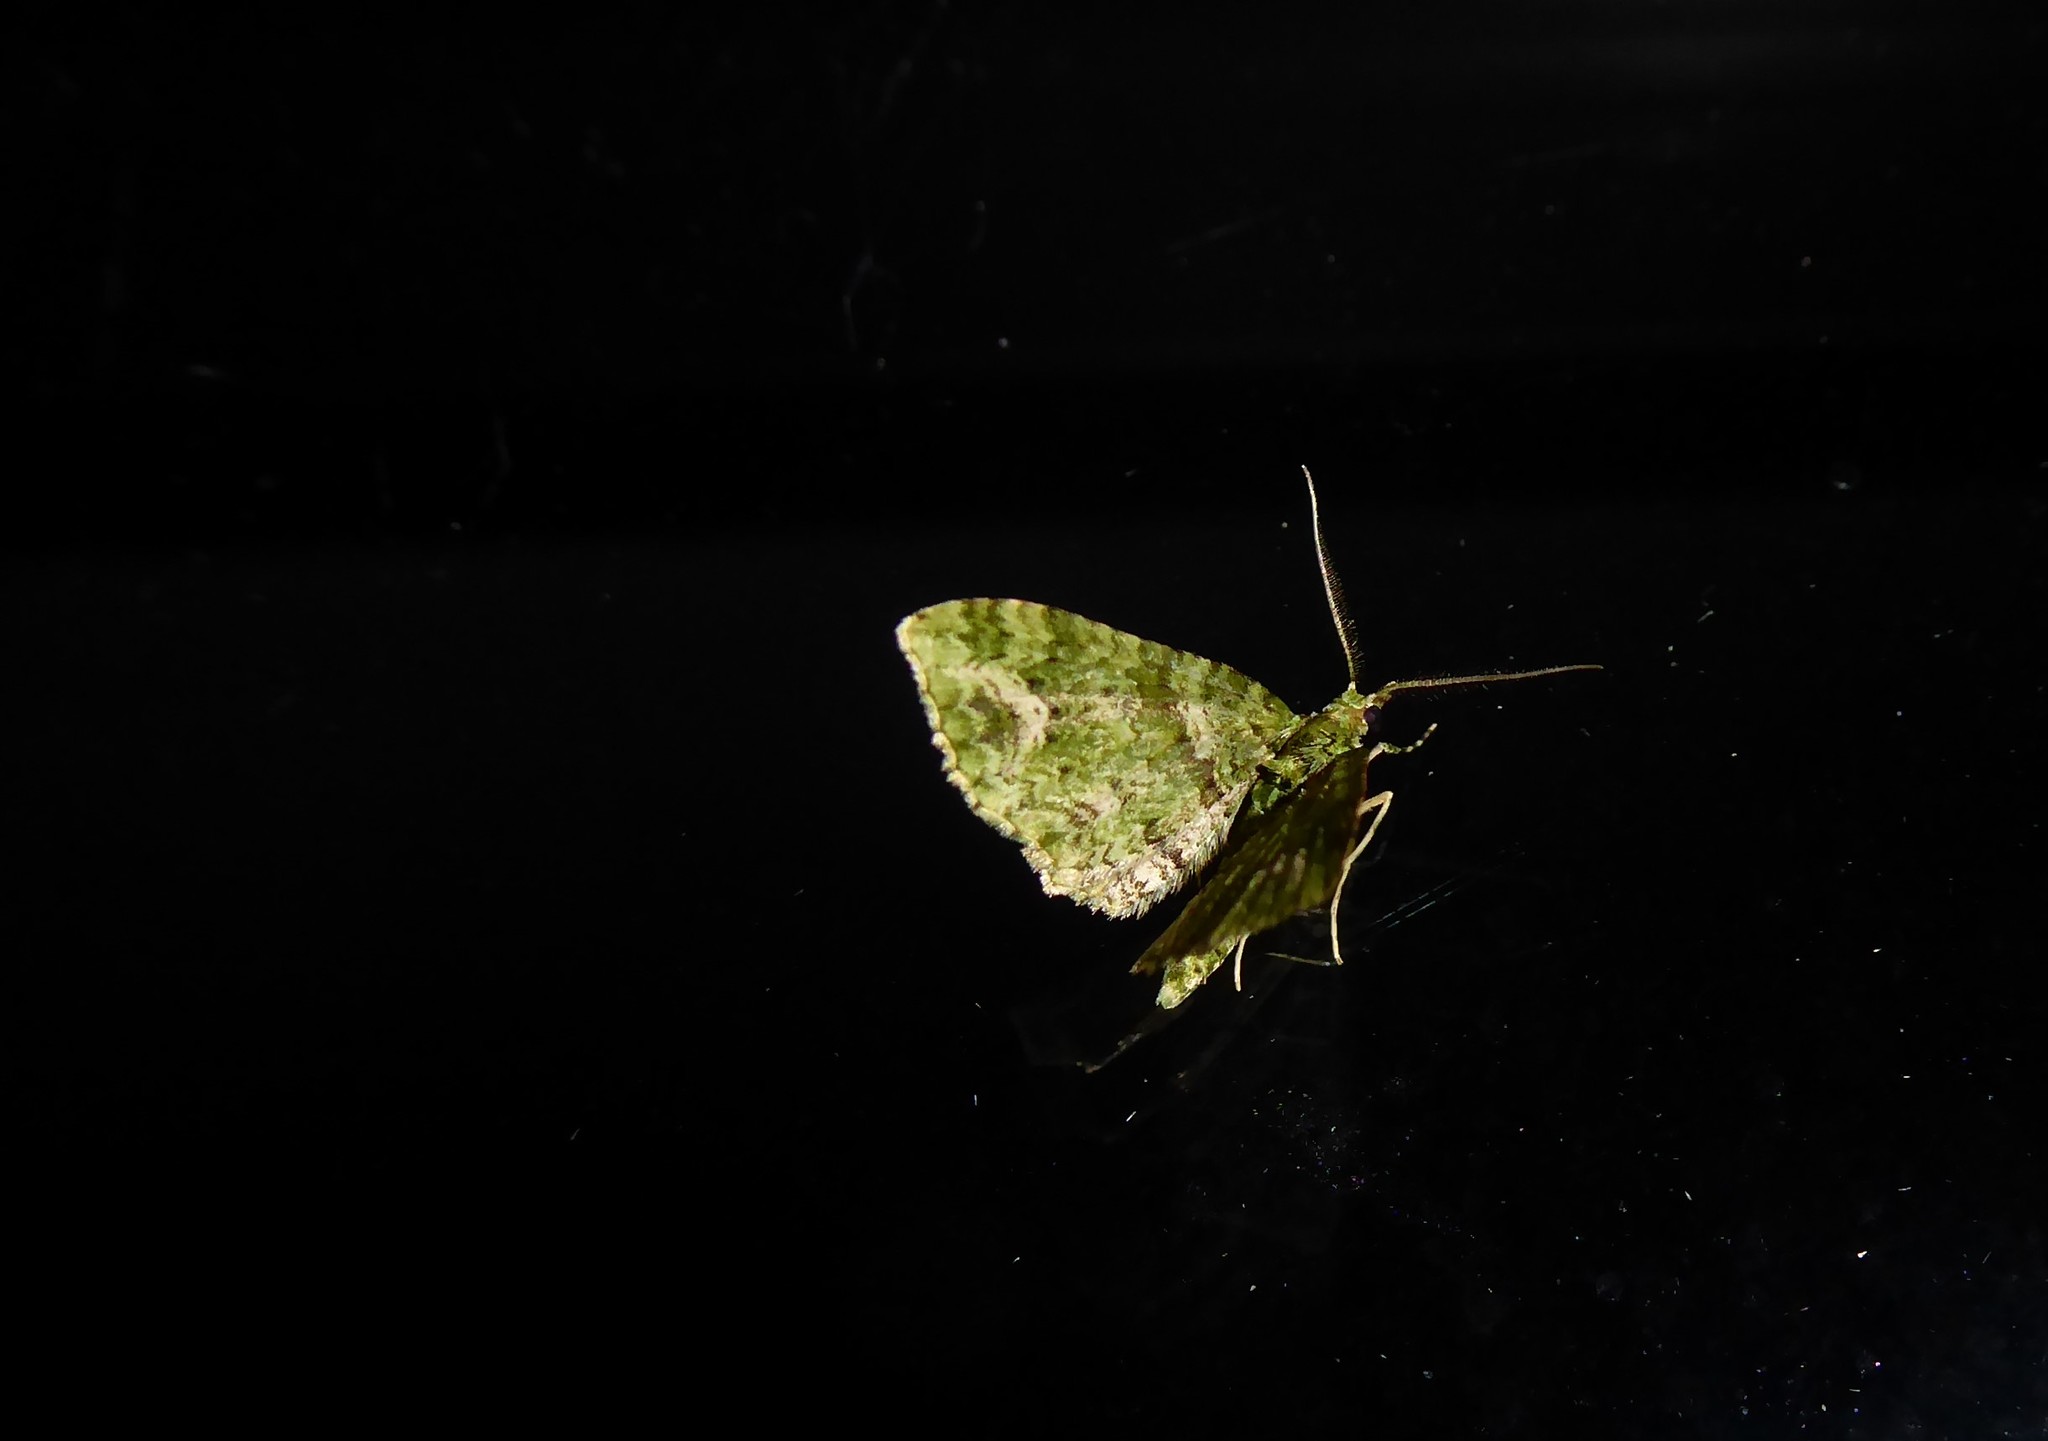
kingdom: Animalia
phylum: Arthropoda
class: Insecta
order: Lepidoptera
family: Geometridae
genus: Pasiphila
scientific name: Pasiphila muscosata
